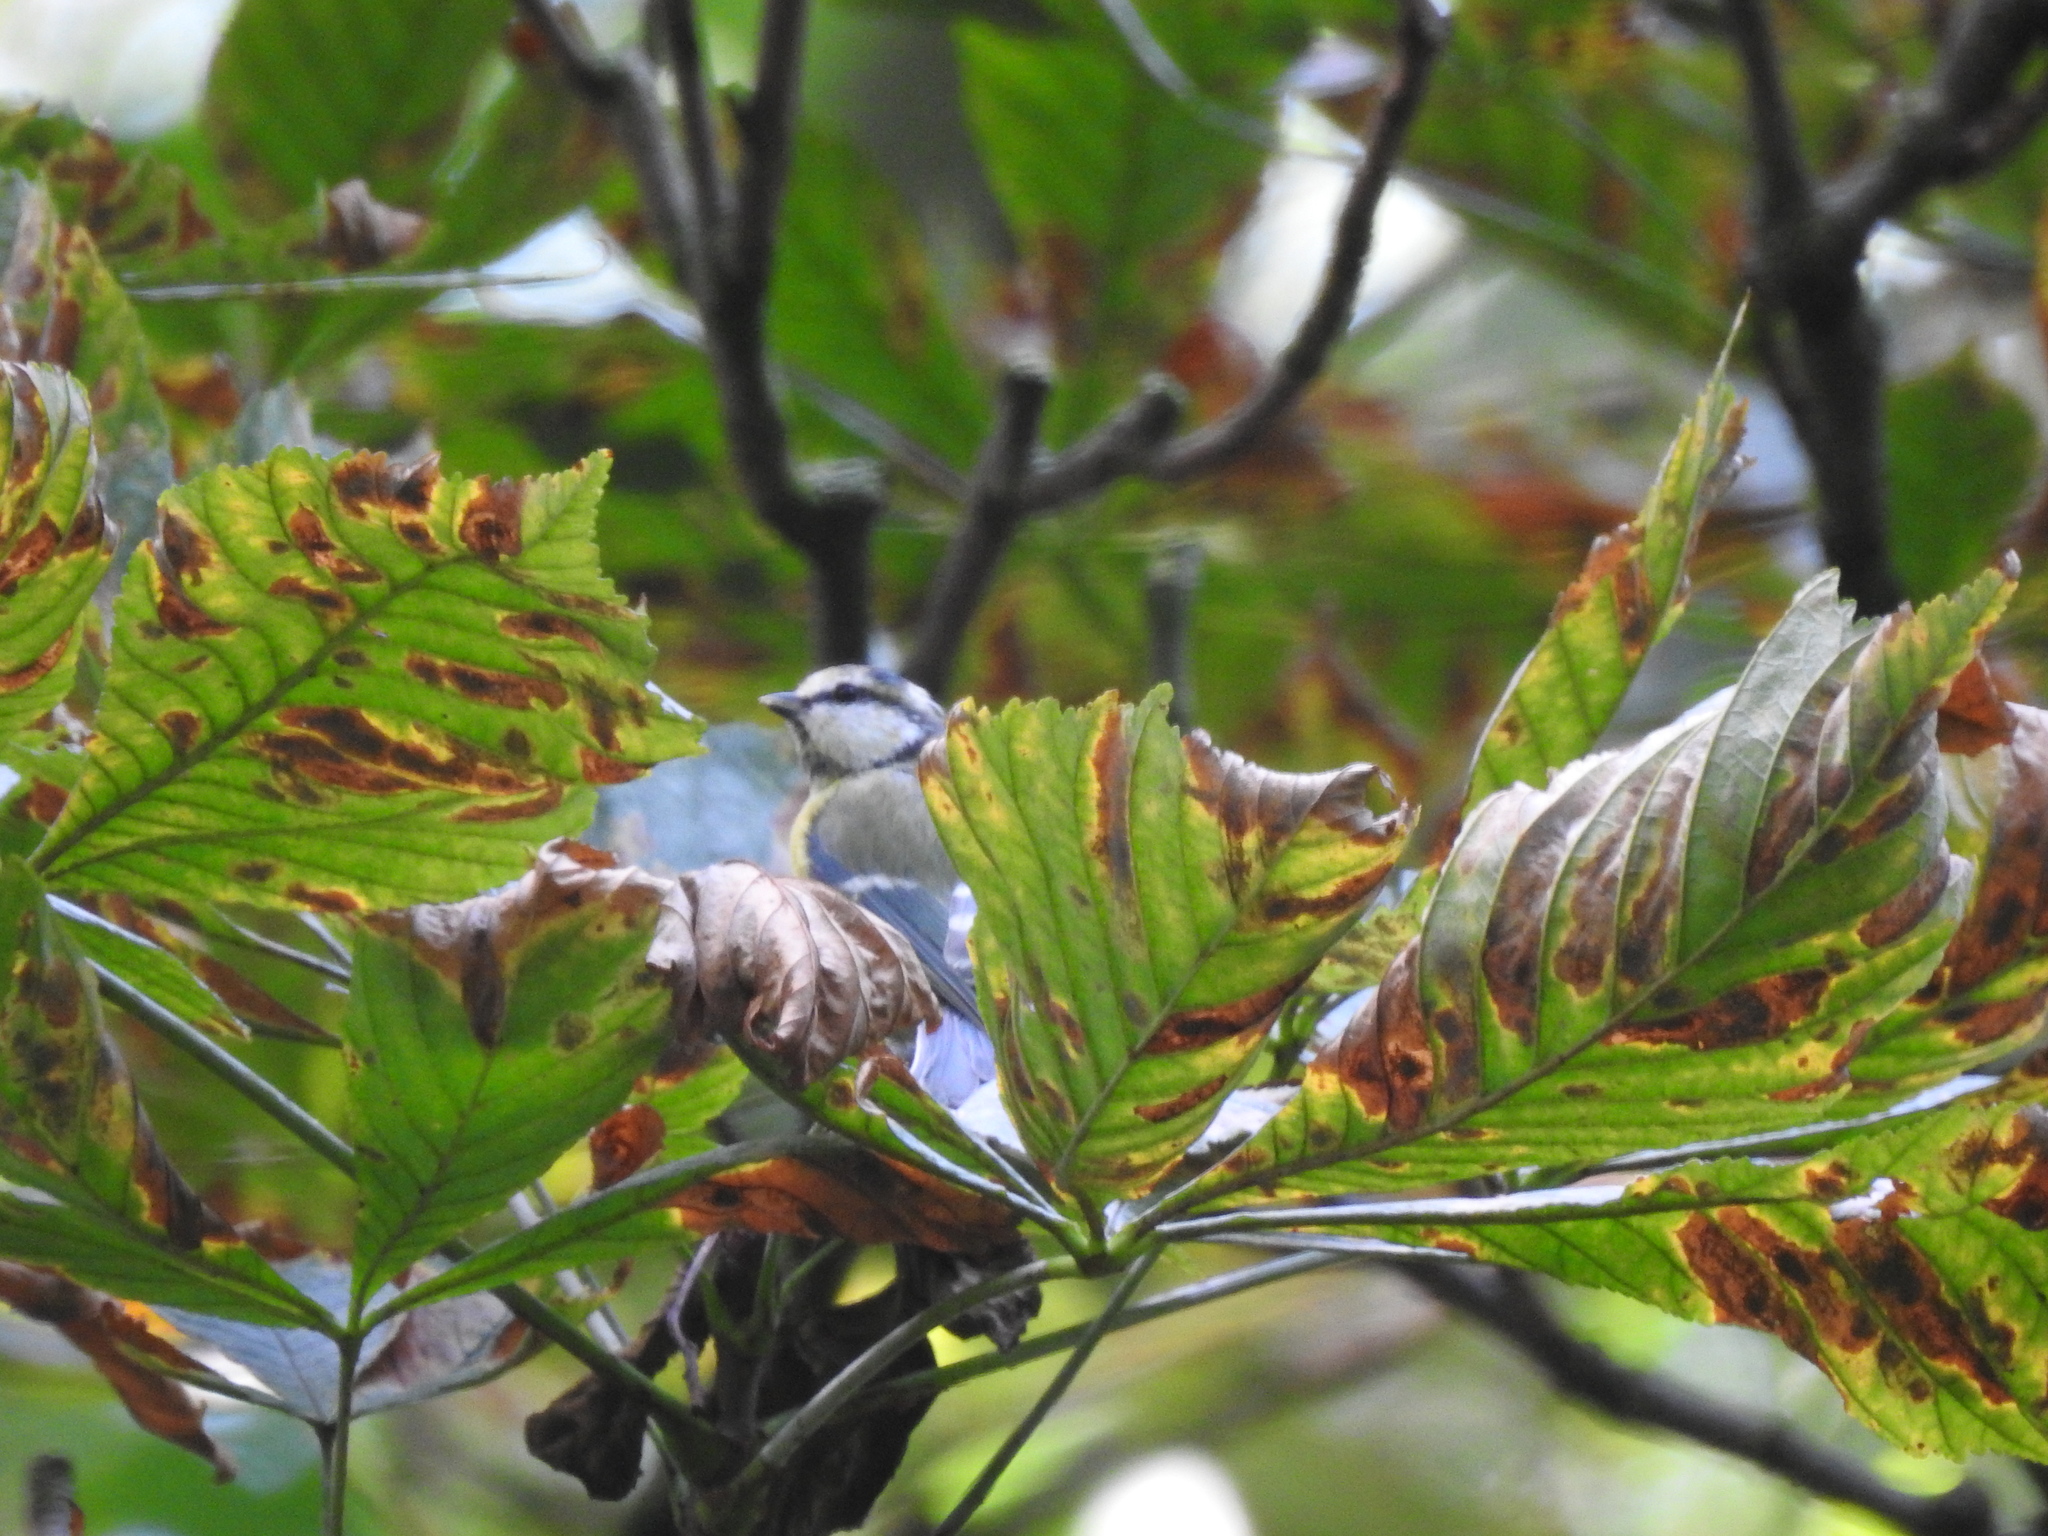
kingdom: Animalia
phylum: Chordata
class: Aves
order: Passeriformes
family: Paridae
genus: Cyanistes
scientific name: Cyanistes caeruleus
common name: Eurasian blue tit
